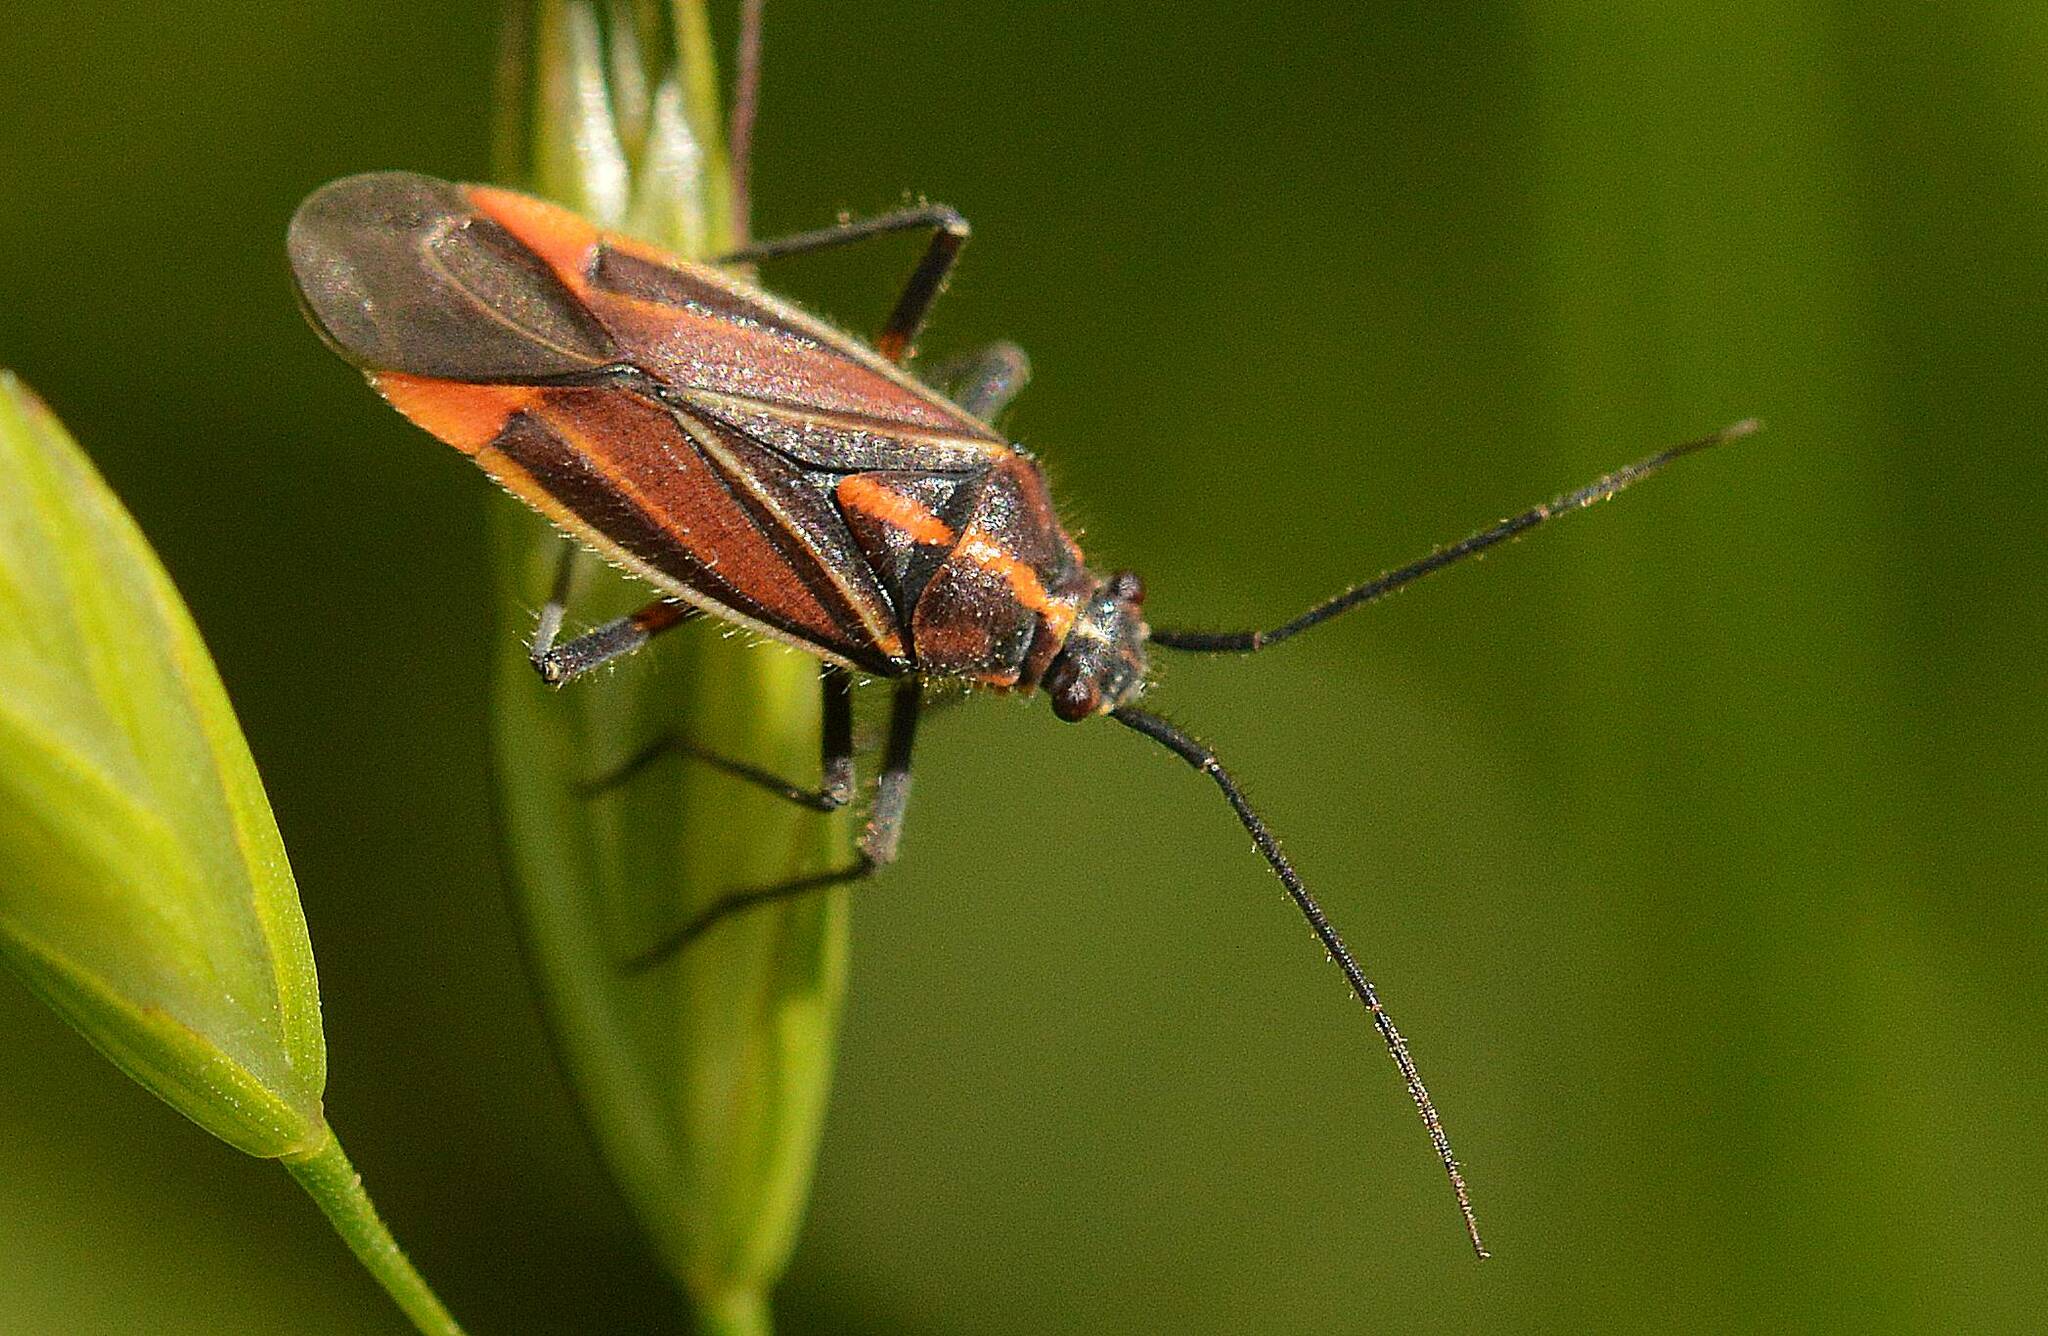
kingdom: Animalia
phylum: Arthropoda
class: Insecta
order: Hemiptera
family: Miridae
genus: Horistus
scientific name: Horistus orientalis
